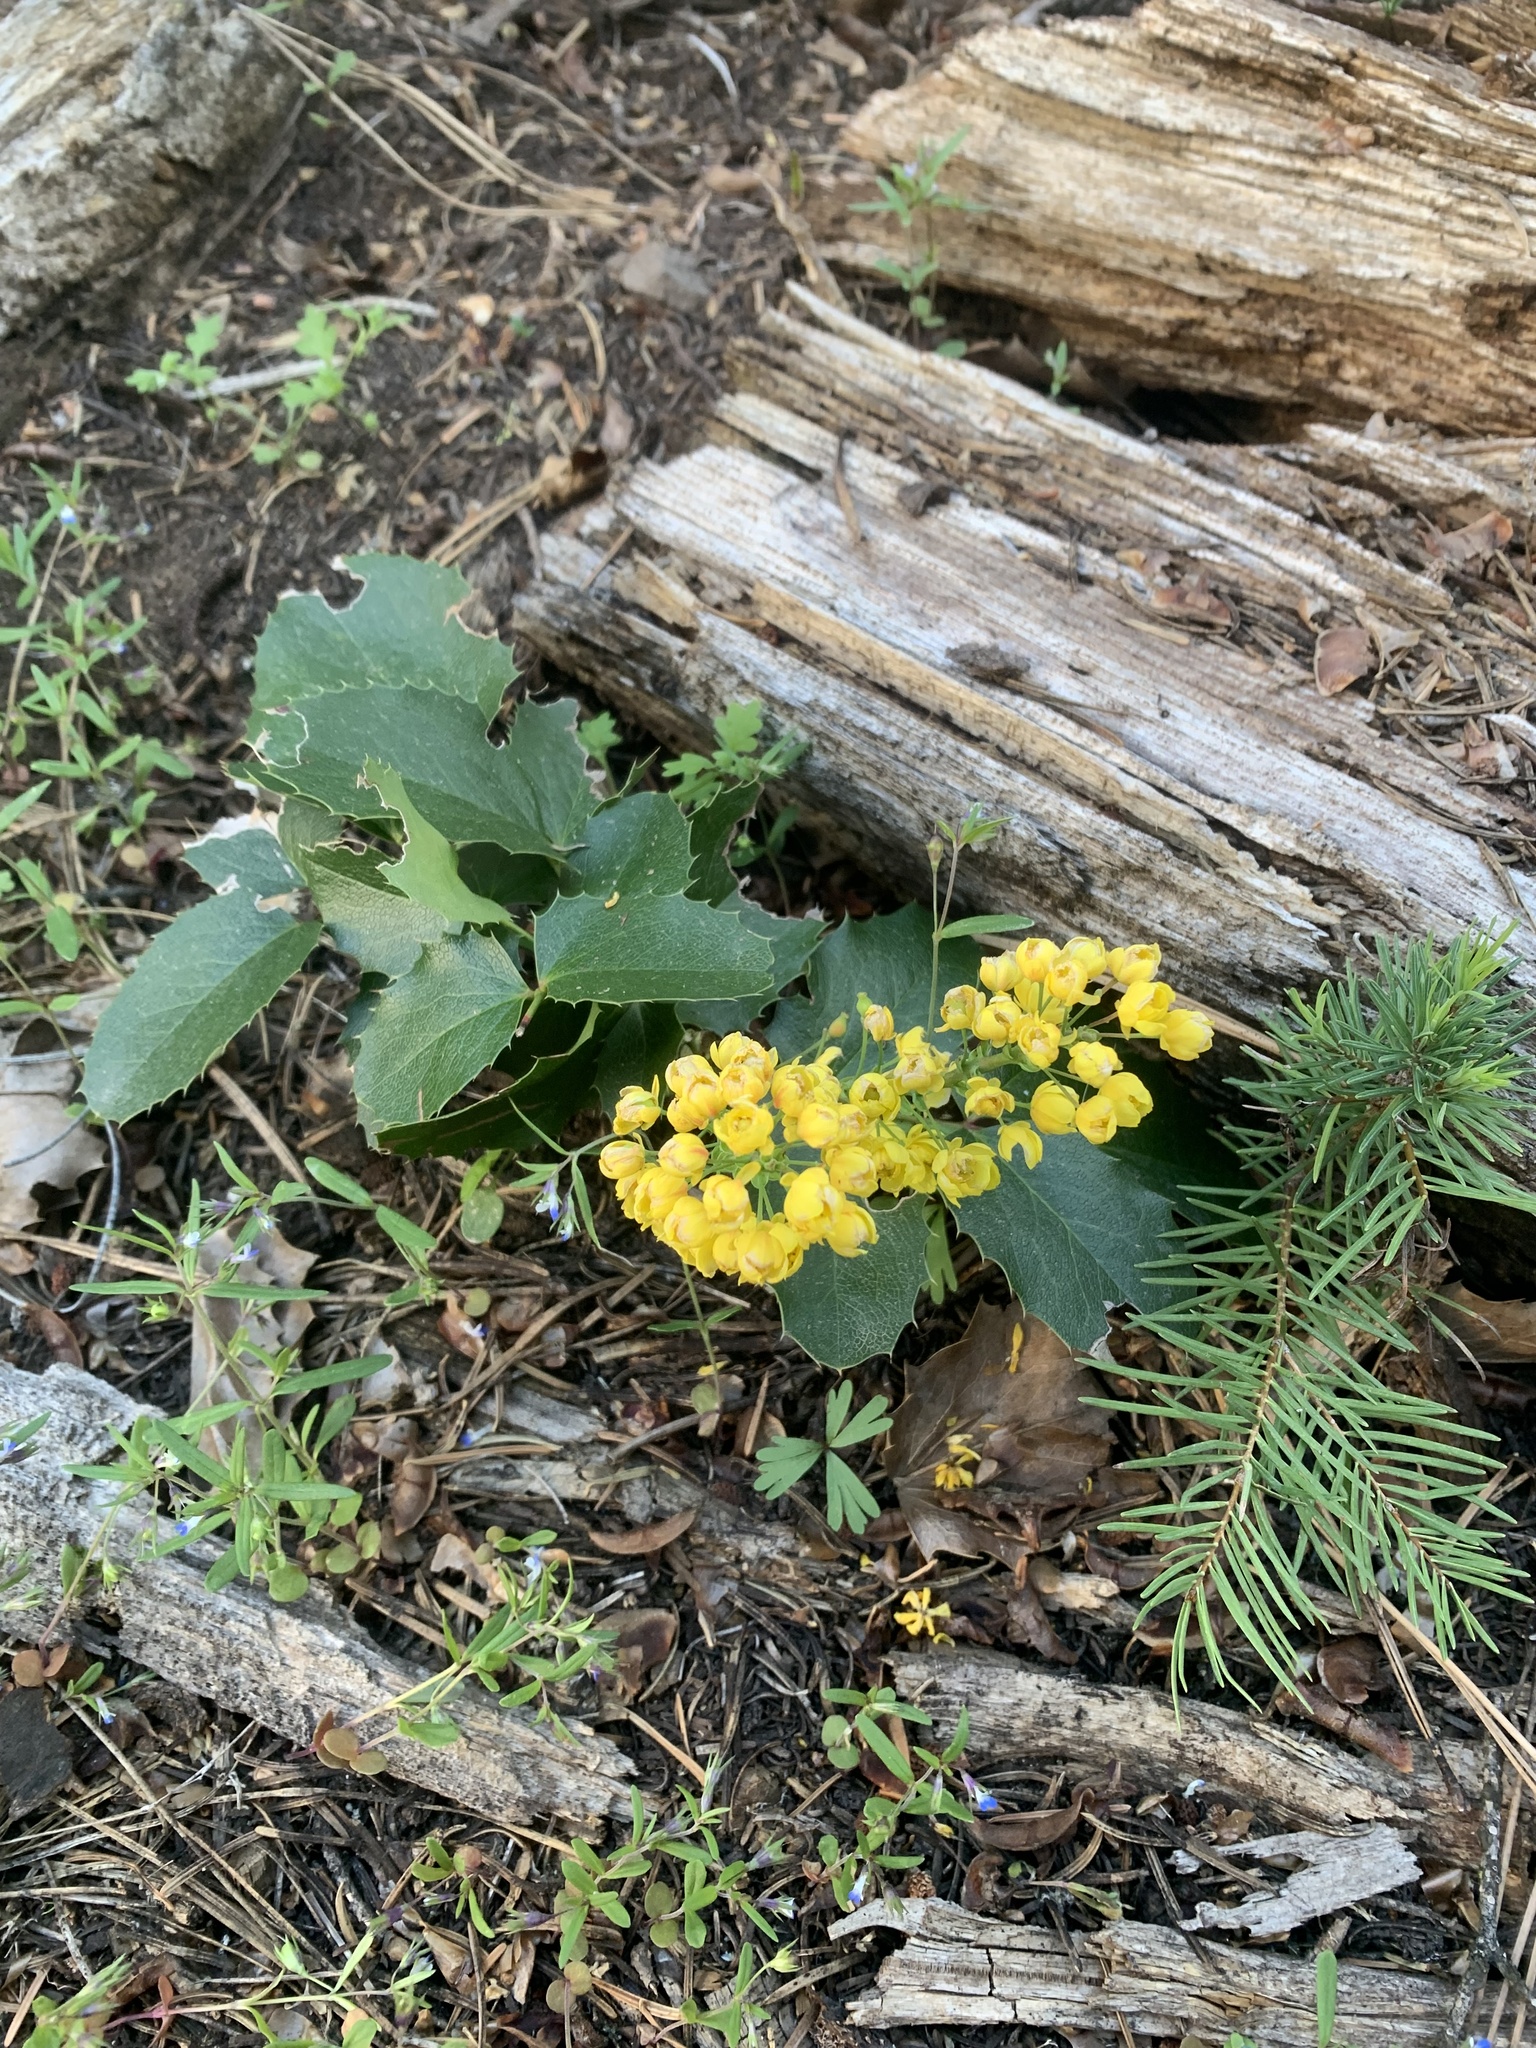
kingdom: Plantae
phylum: Tracheophyta
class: Magnoliopsida
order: Ranunculales
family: Berberidaceae
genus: Mahonia
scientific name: Mahonia repens
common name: Creeping oregon-grape
